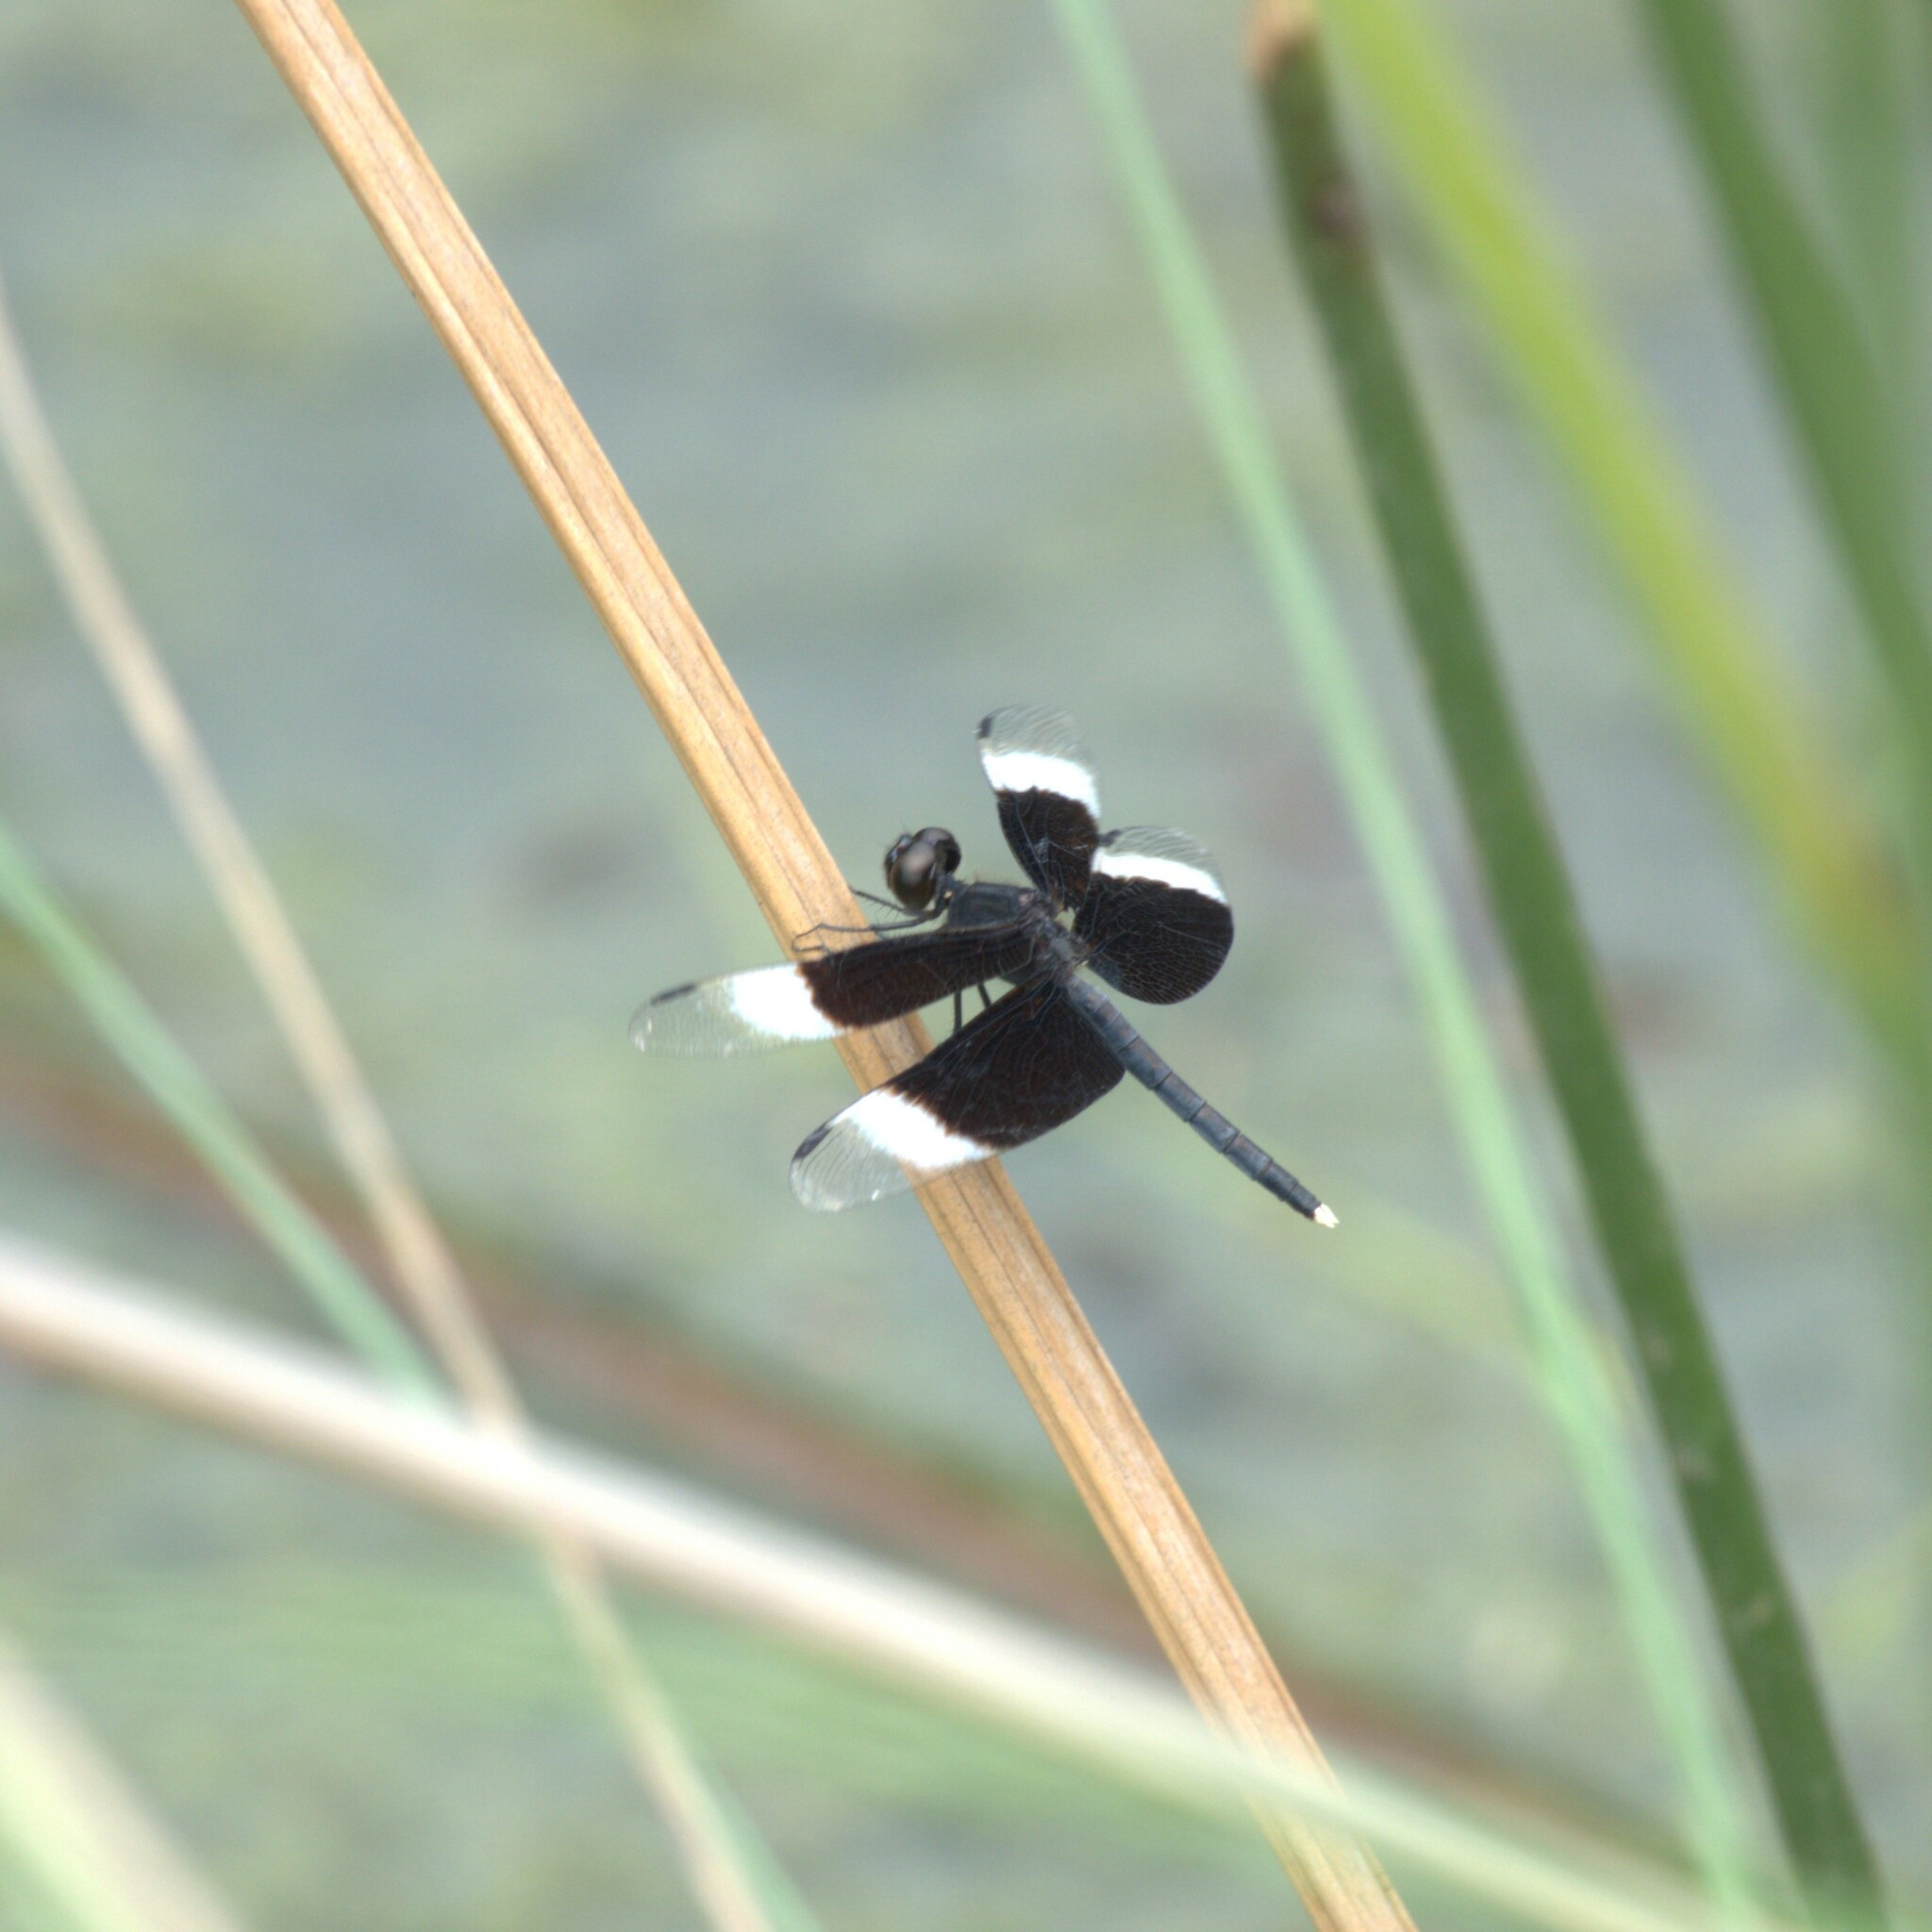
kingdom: Animalia
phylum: Arthropoda
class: Insecta
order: Odonata
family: Libellulidae
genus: Neurothemis
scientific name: Neurothemis tullia
